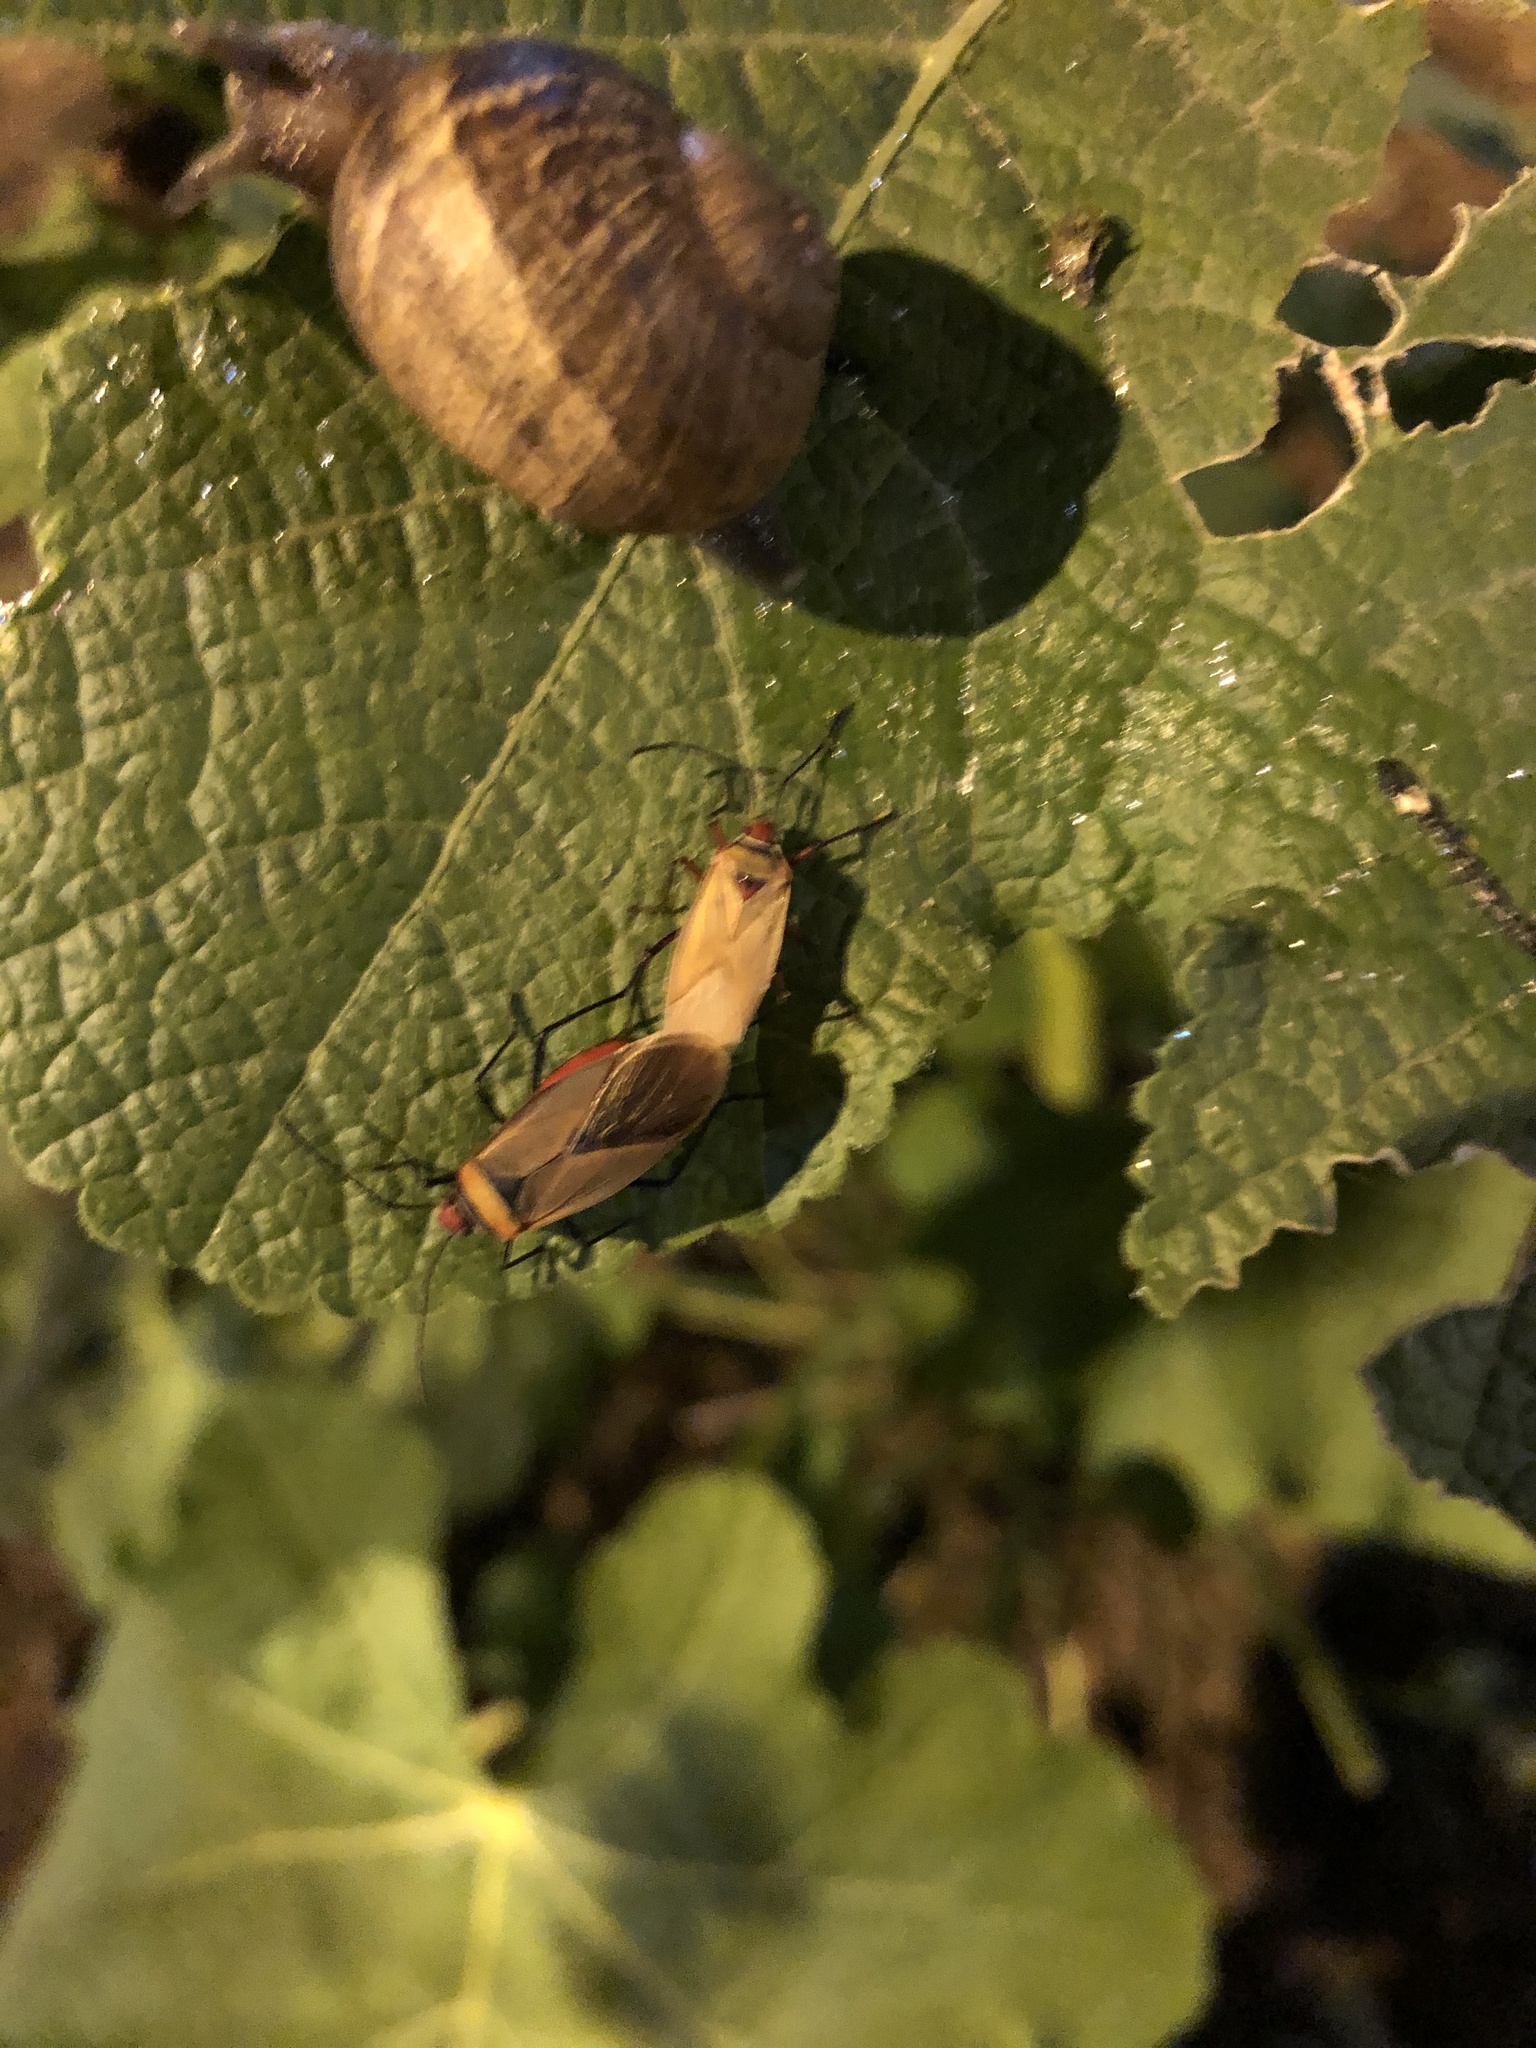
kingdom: Animalia
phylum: Arthropoda
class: Insecta
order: Hemiptera
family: Pyrrhocoridae
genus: Dysdercus
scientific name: Dysdercus peruvianus
